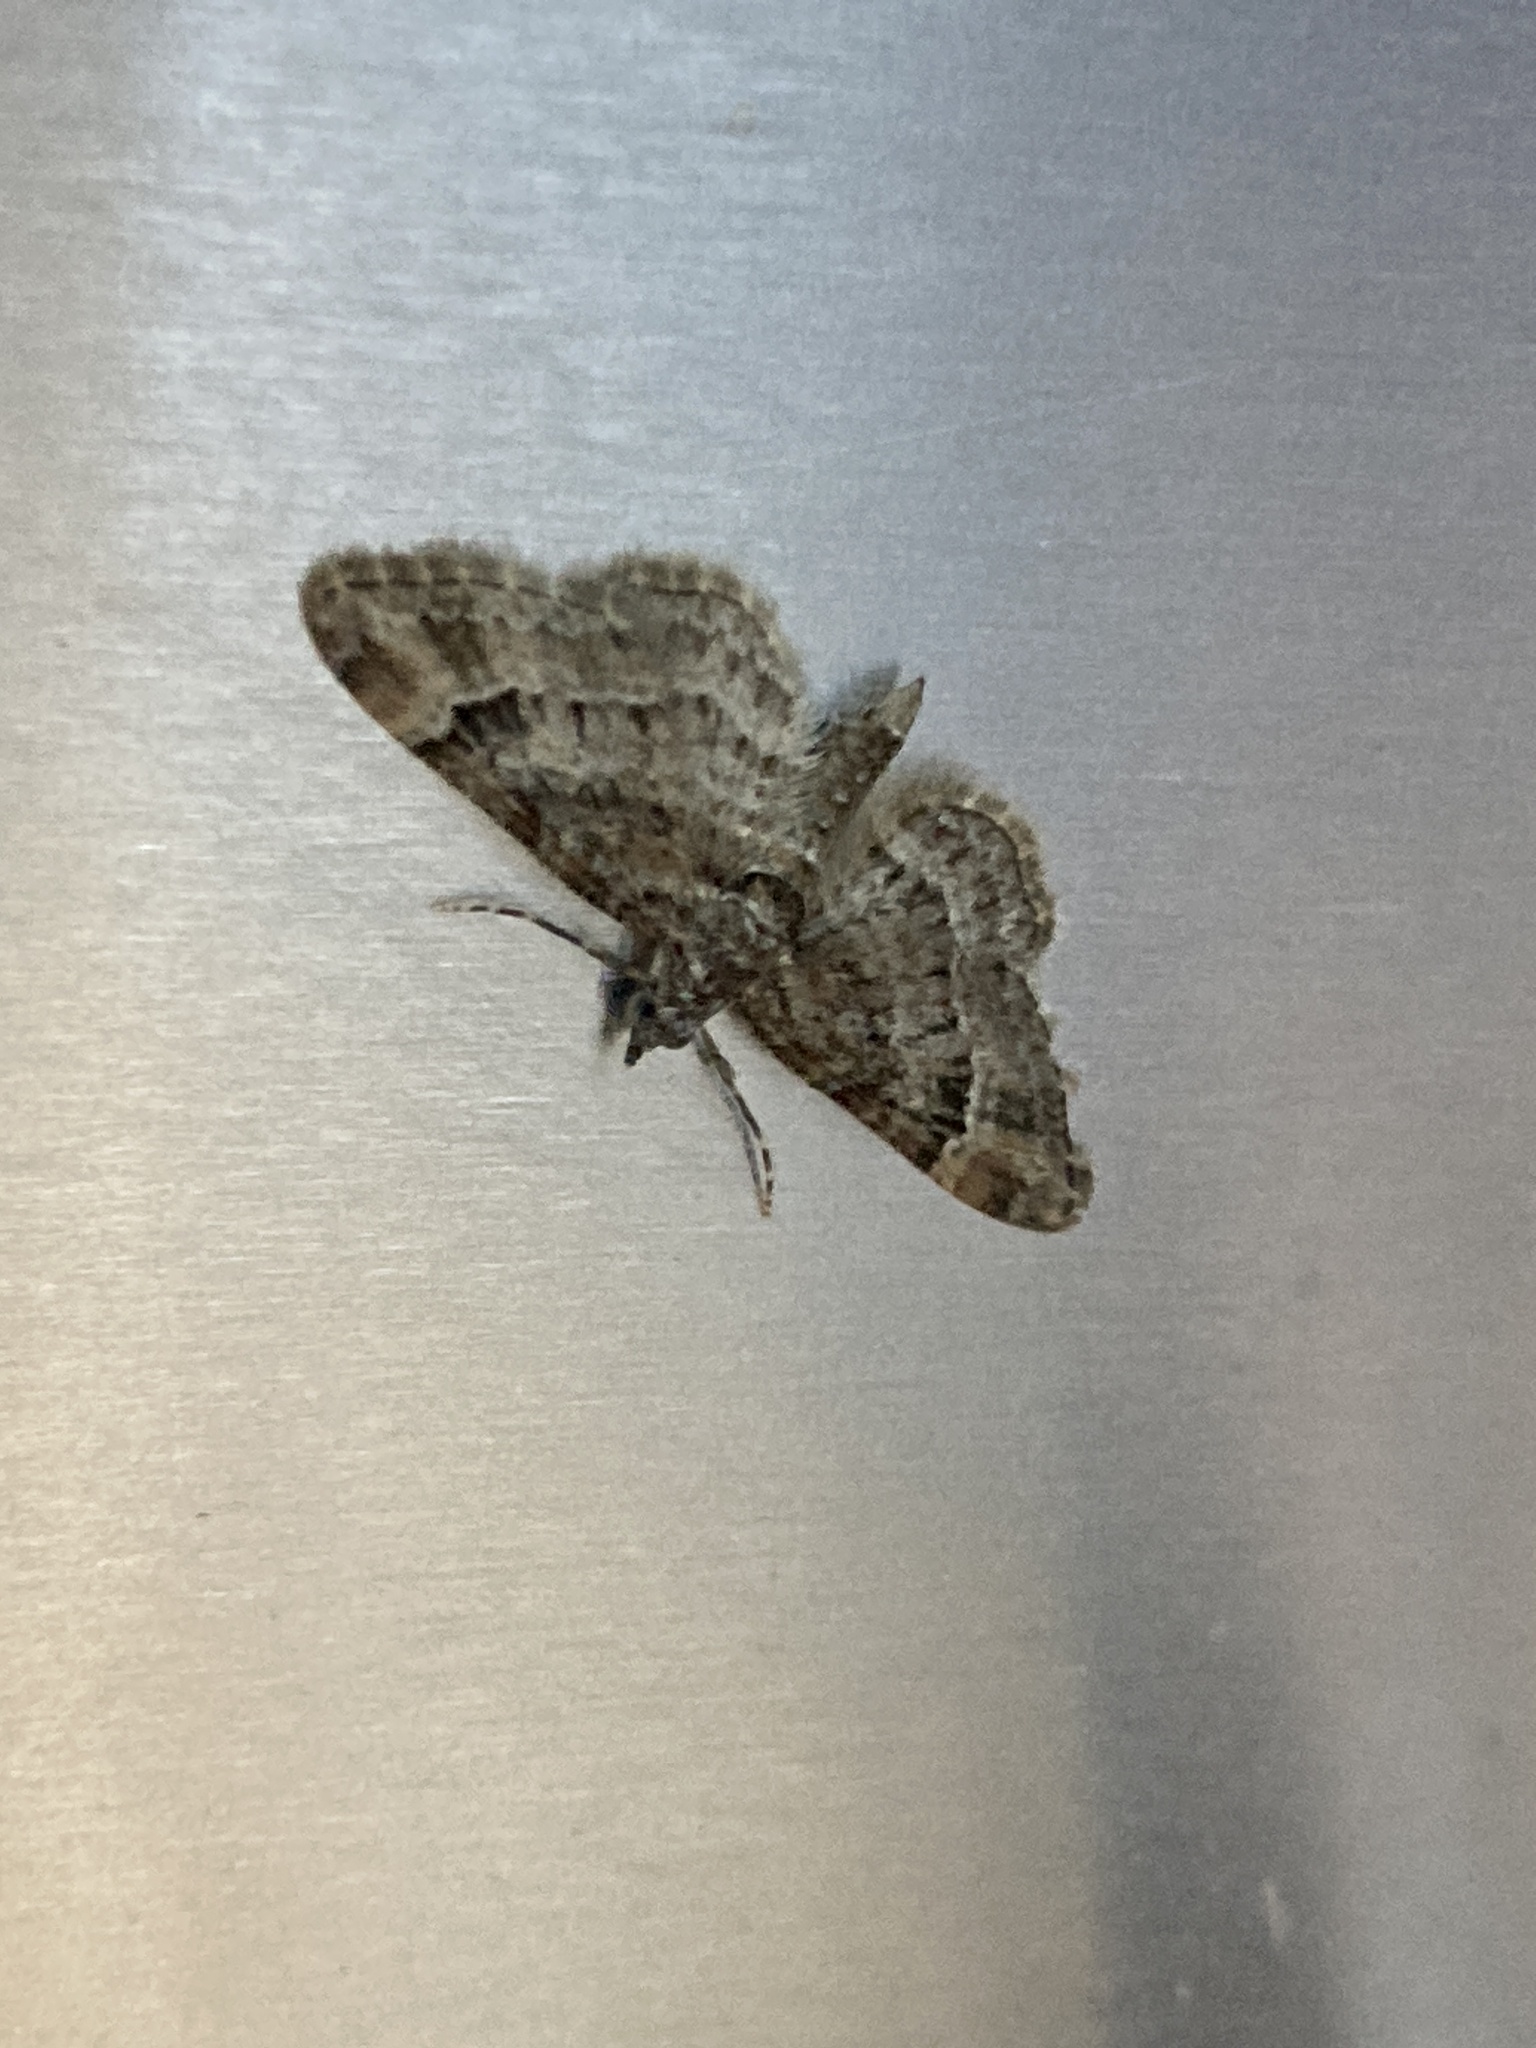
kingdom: Animalia
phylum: Arthropoda
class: Insecta
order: Lepidoptera
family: Geometridae
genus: Gymnoscelis
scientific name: Gymnoscelis rufifasciata
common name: Double-striped pug
